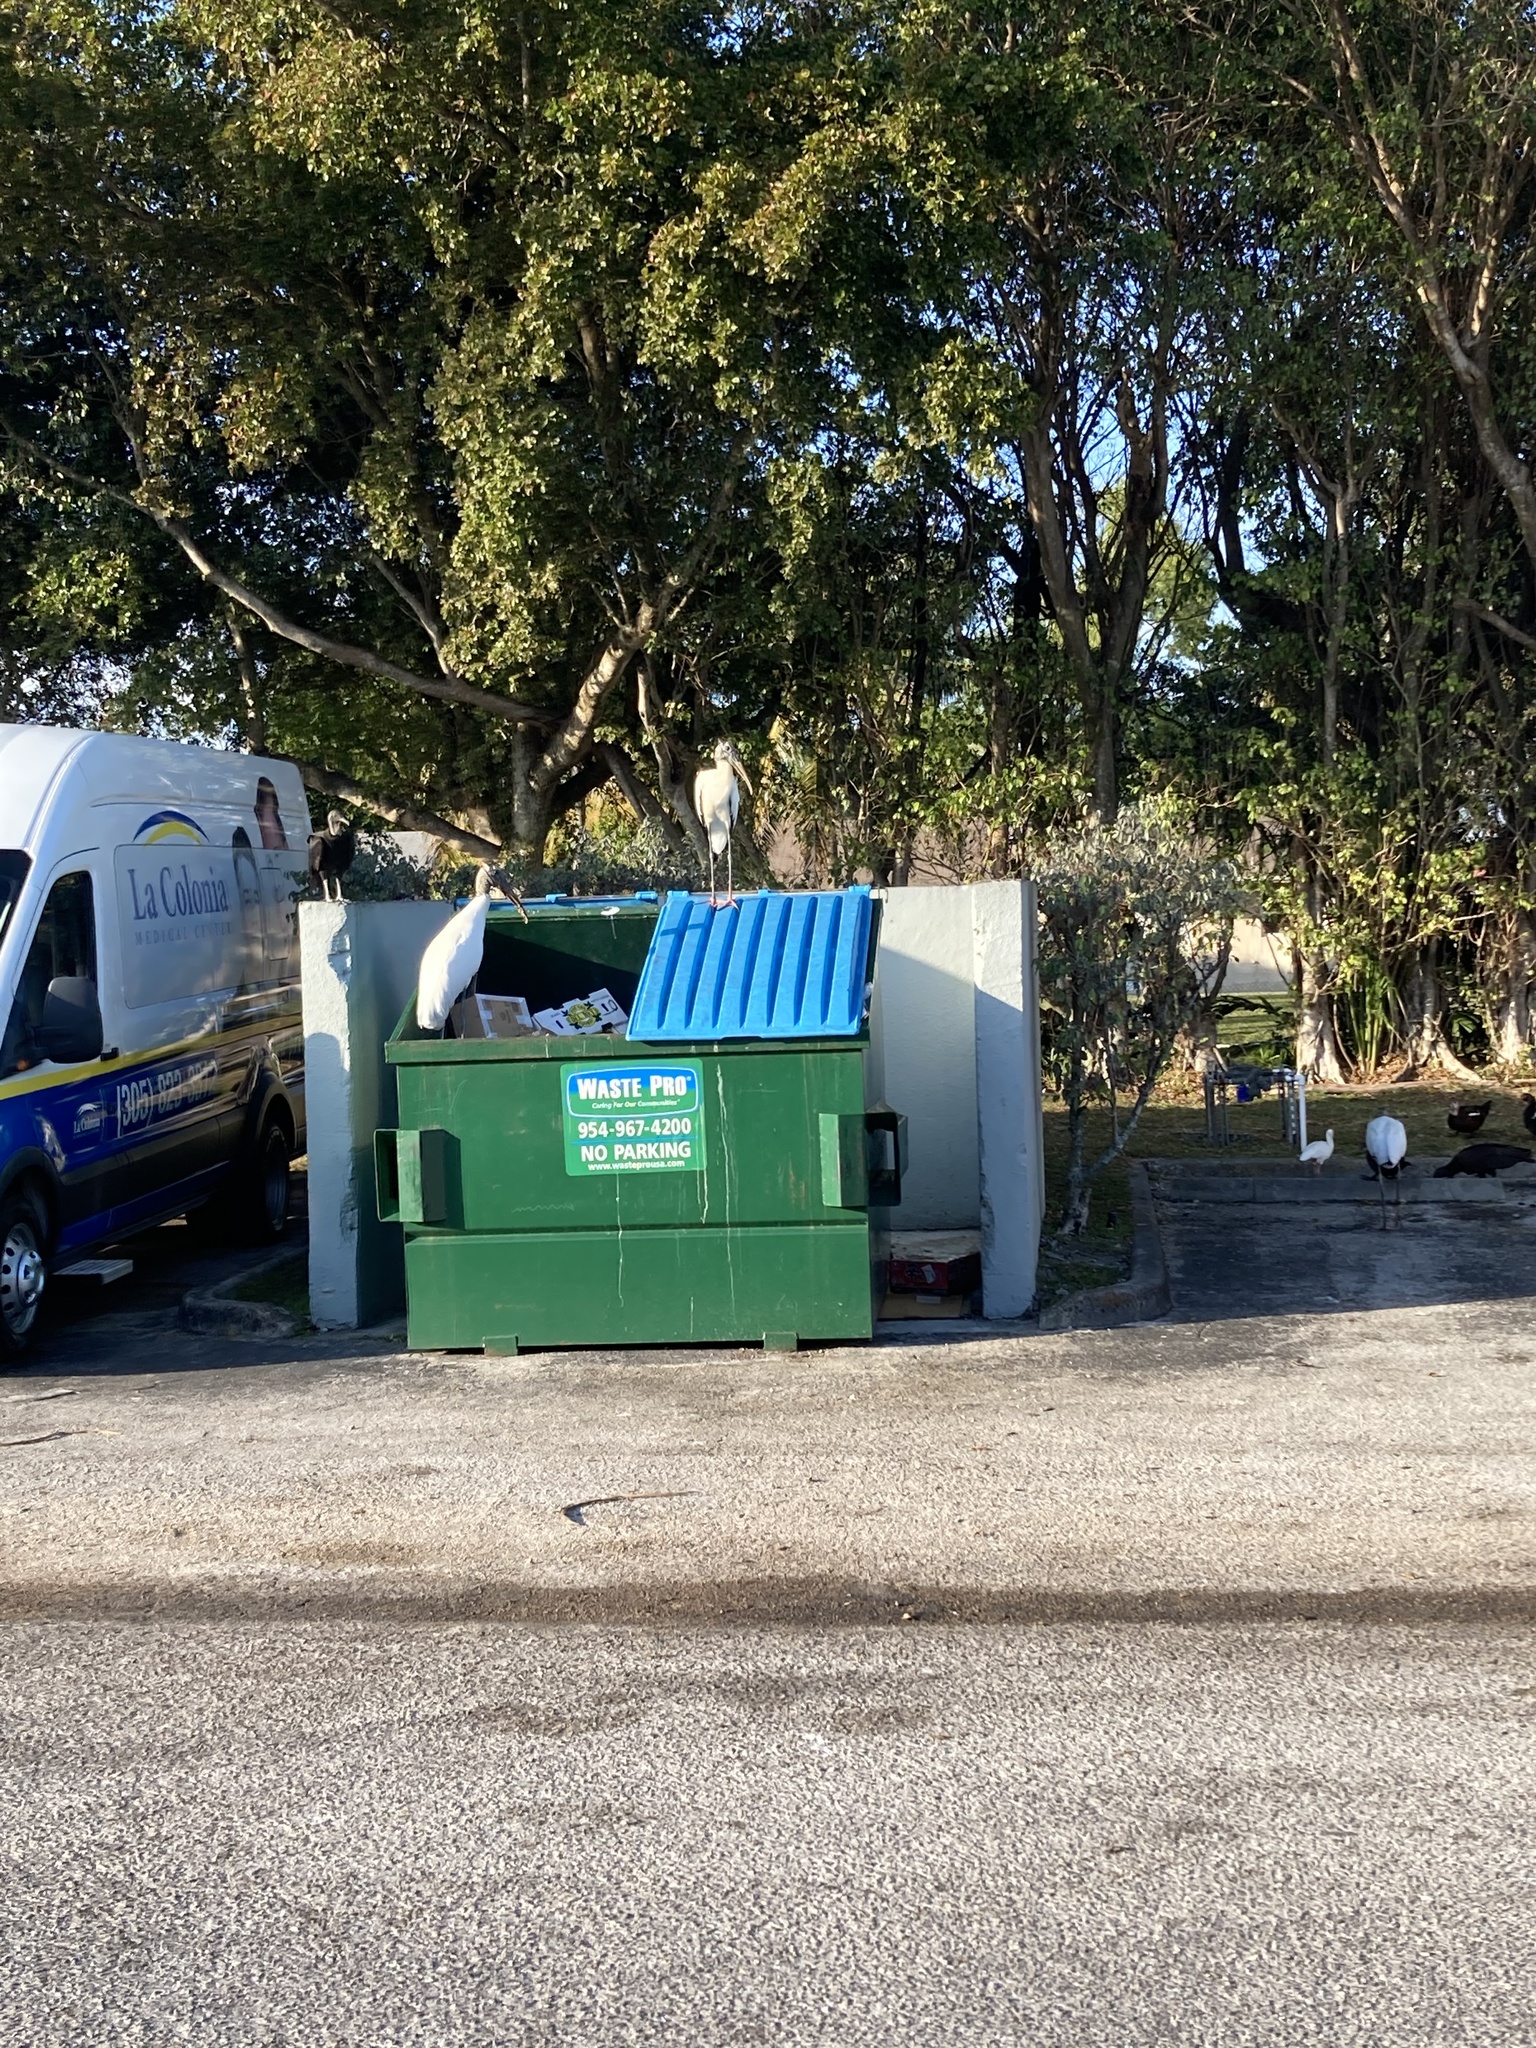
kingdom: Animalia
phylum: Chordata
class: Aves
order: Ciconiiformes
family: Ciconiidae
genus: Mycteria
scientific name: Mycteria americana
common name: Wood stork
